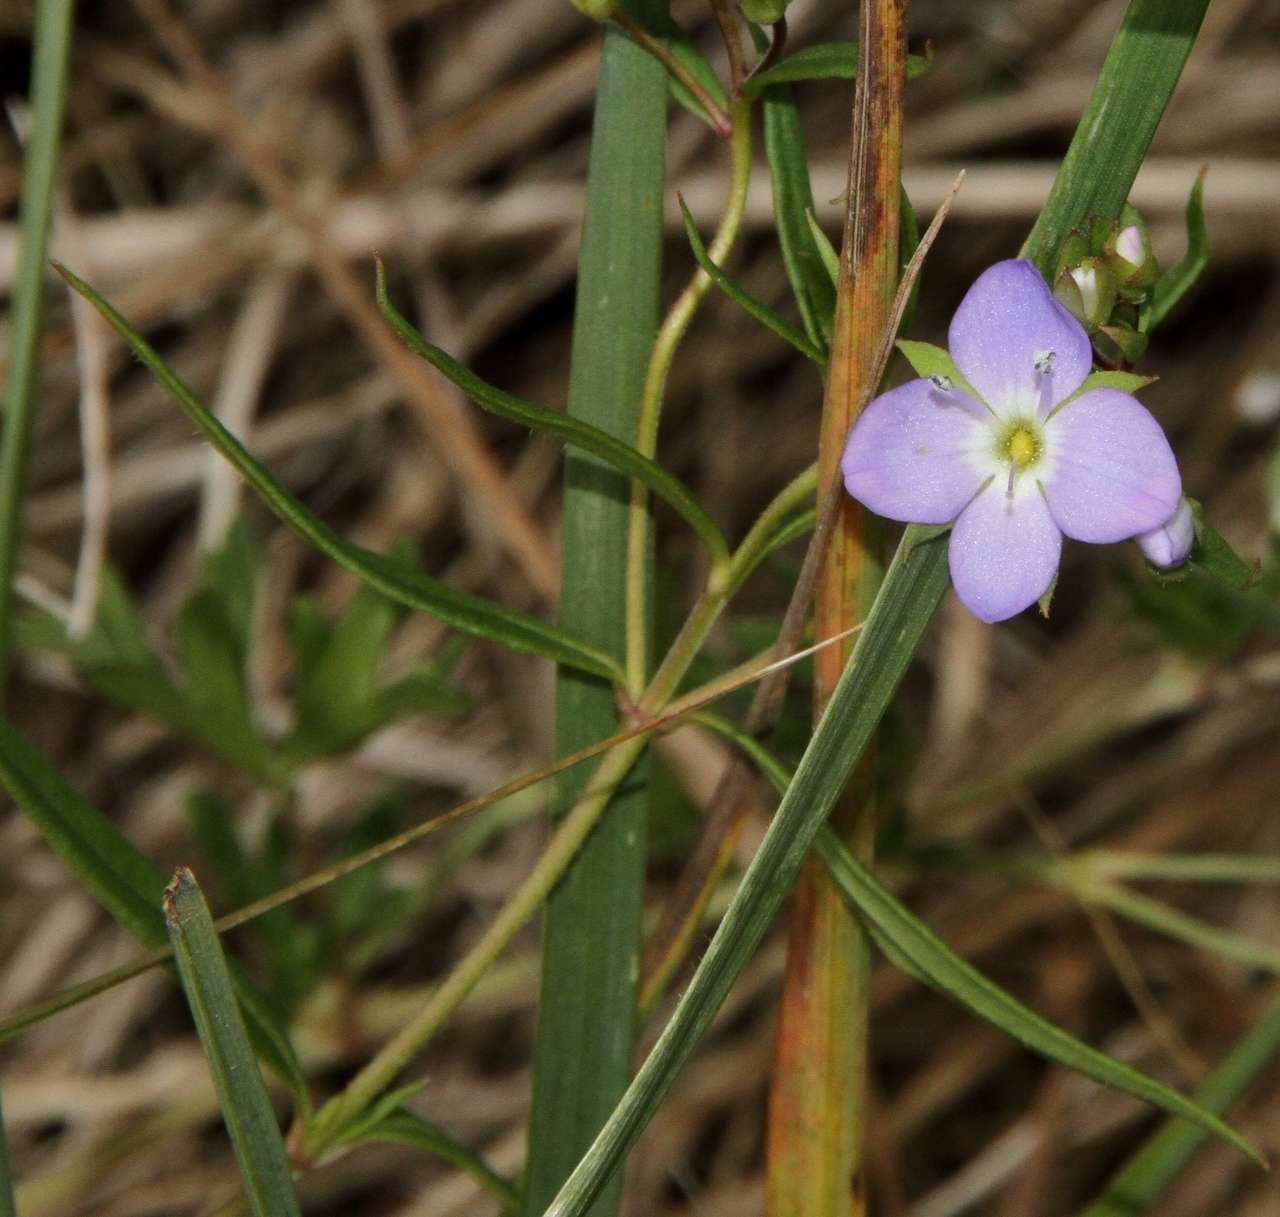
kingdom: Plantae
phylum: Tracheophyta
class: Magnoliopsida
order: Lamiales
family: Plantaginaceae
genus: Veronica
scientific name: Veronica gracilis
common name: Slender speedwell
